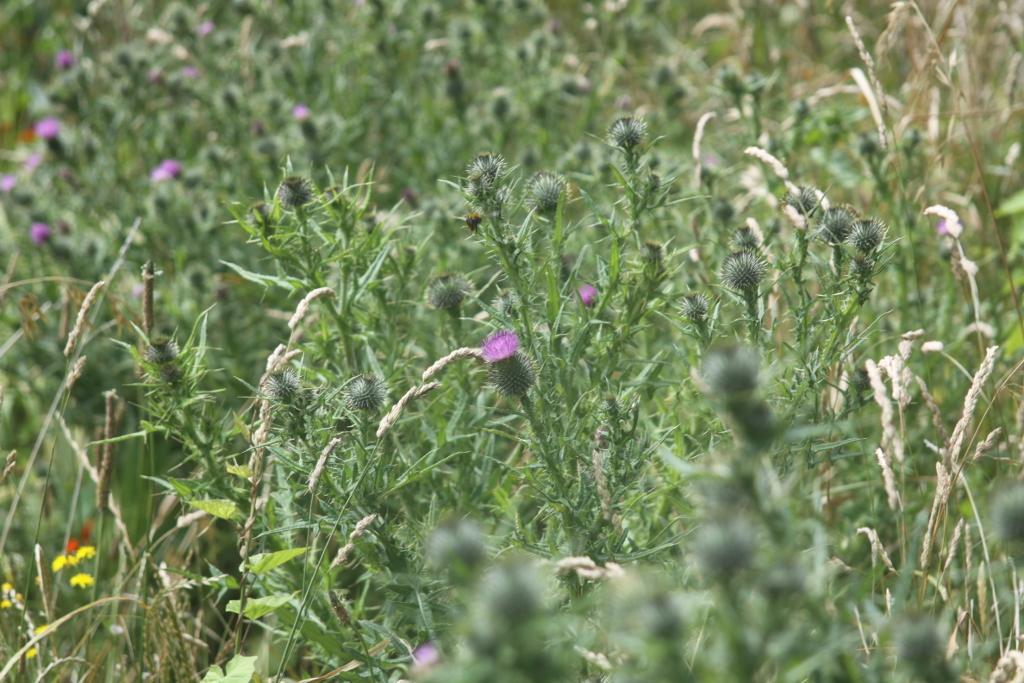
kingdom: Plantae
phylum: Tracheophyta
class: Magnoliopsida
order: Asterales
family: Asteraceae
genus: Cirsium
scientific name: Cirsium vulgare
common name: Bull thistle
